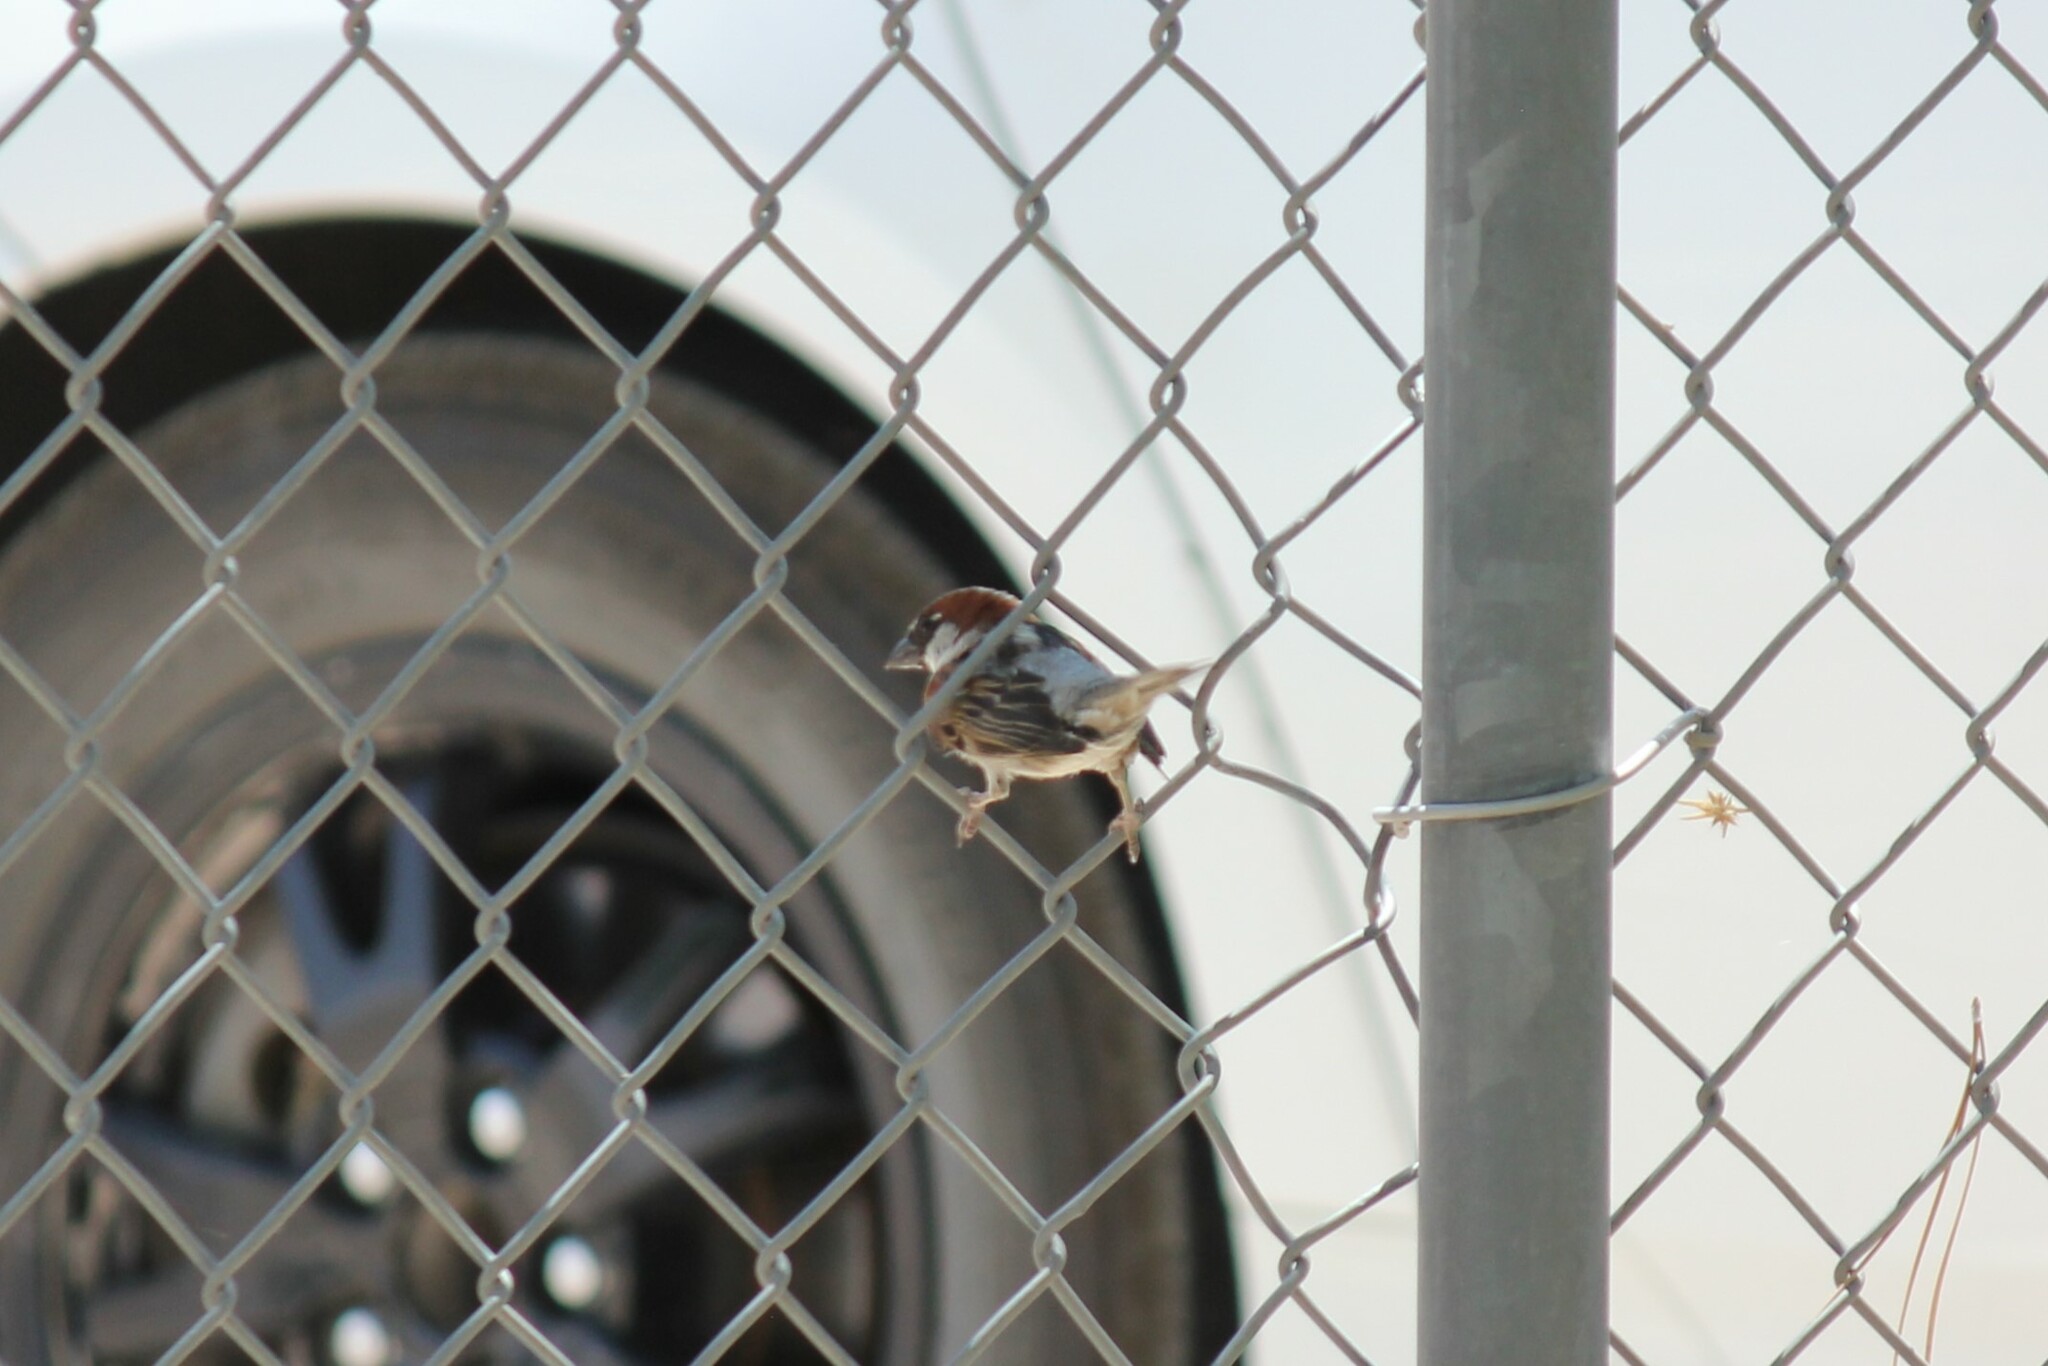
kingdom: Animalia
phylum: Chordata
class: Aves
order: Passeriformes
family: Passeridae
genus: Passer
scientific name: Passer domesticus
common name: House sparrow
